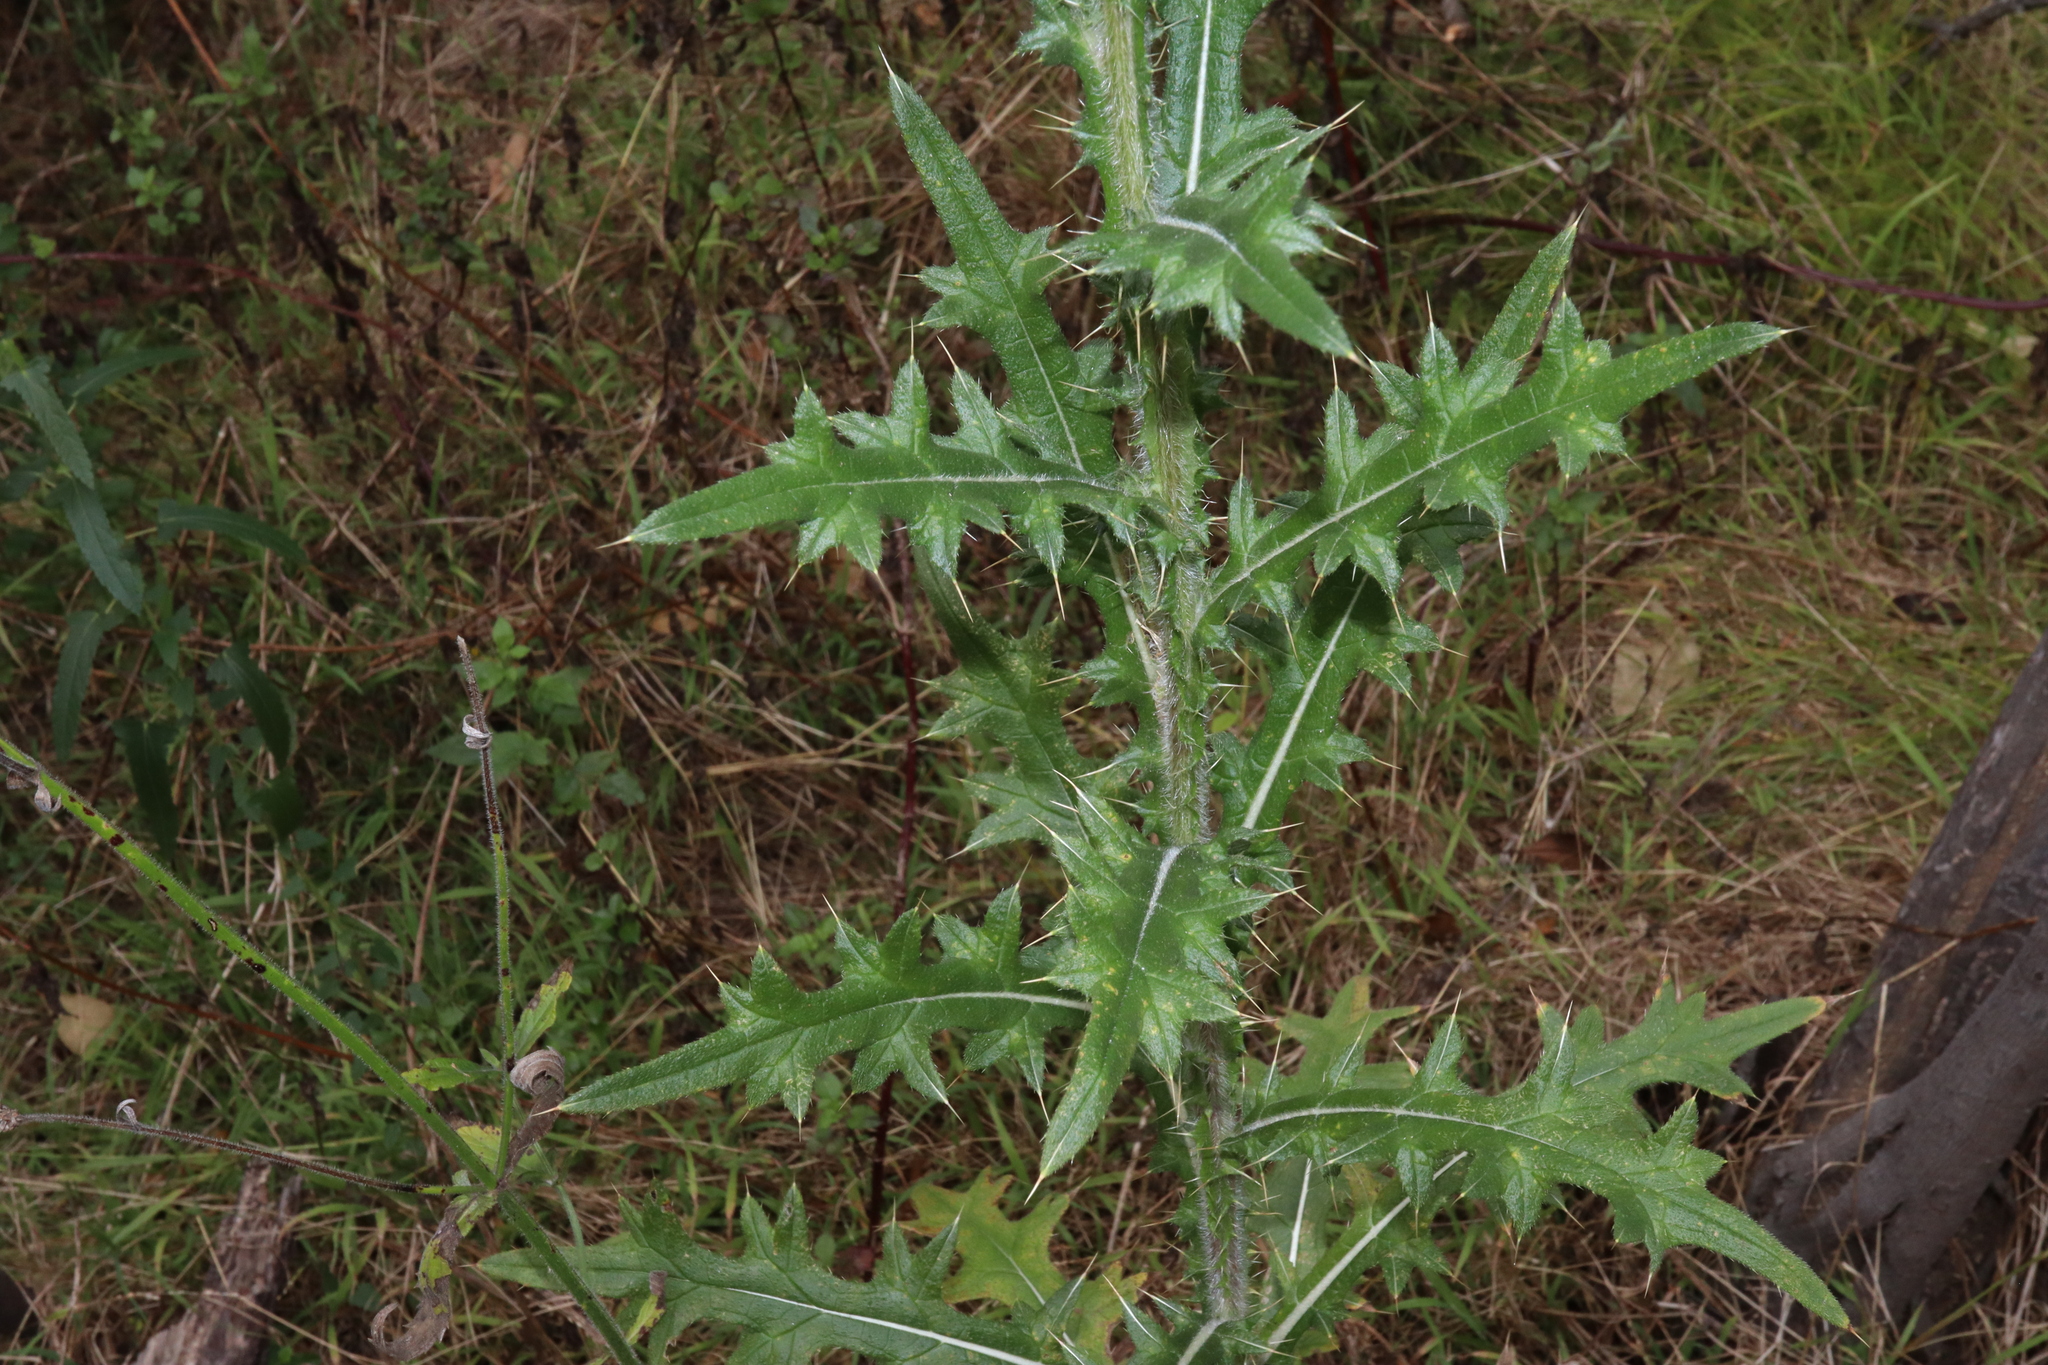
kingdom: Plantae
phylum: Tracheophyta
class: Magnoliopsida
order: Asterales
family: Asteraceae
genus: Cirsium
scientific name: Cirsium vulgare
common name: Bull thistle
